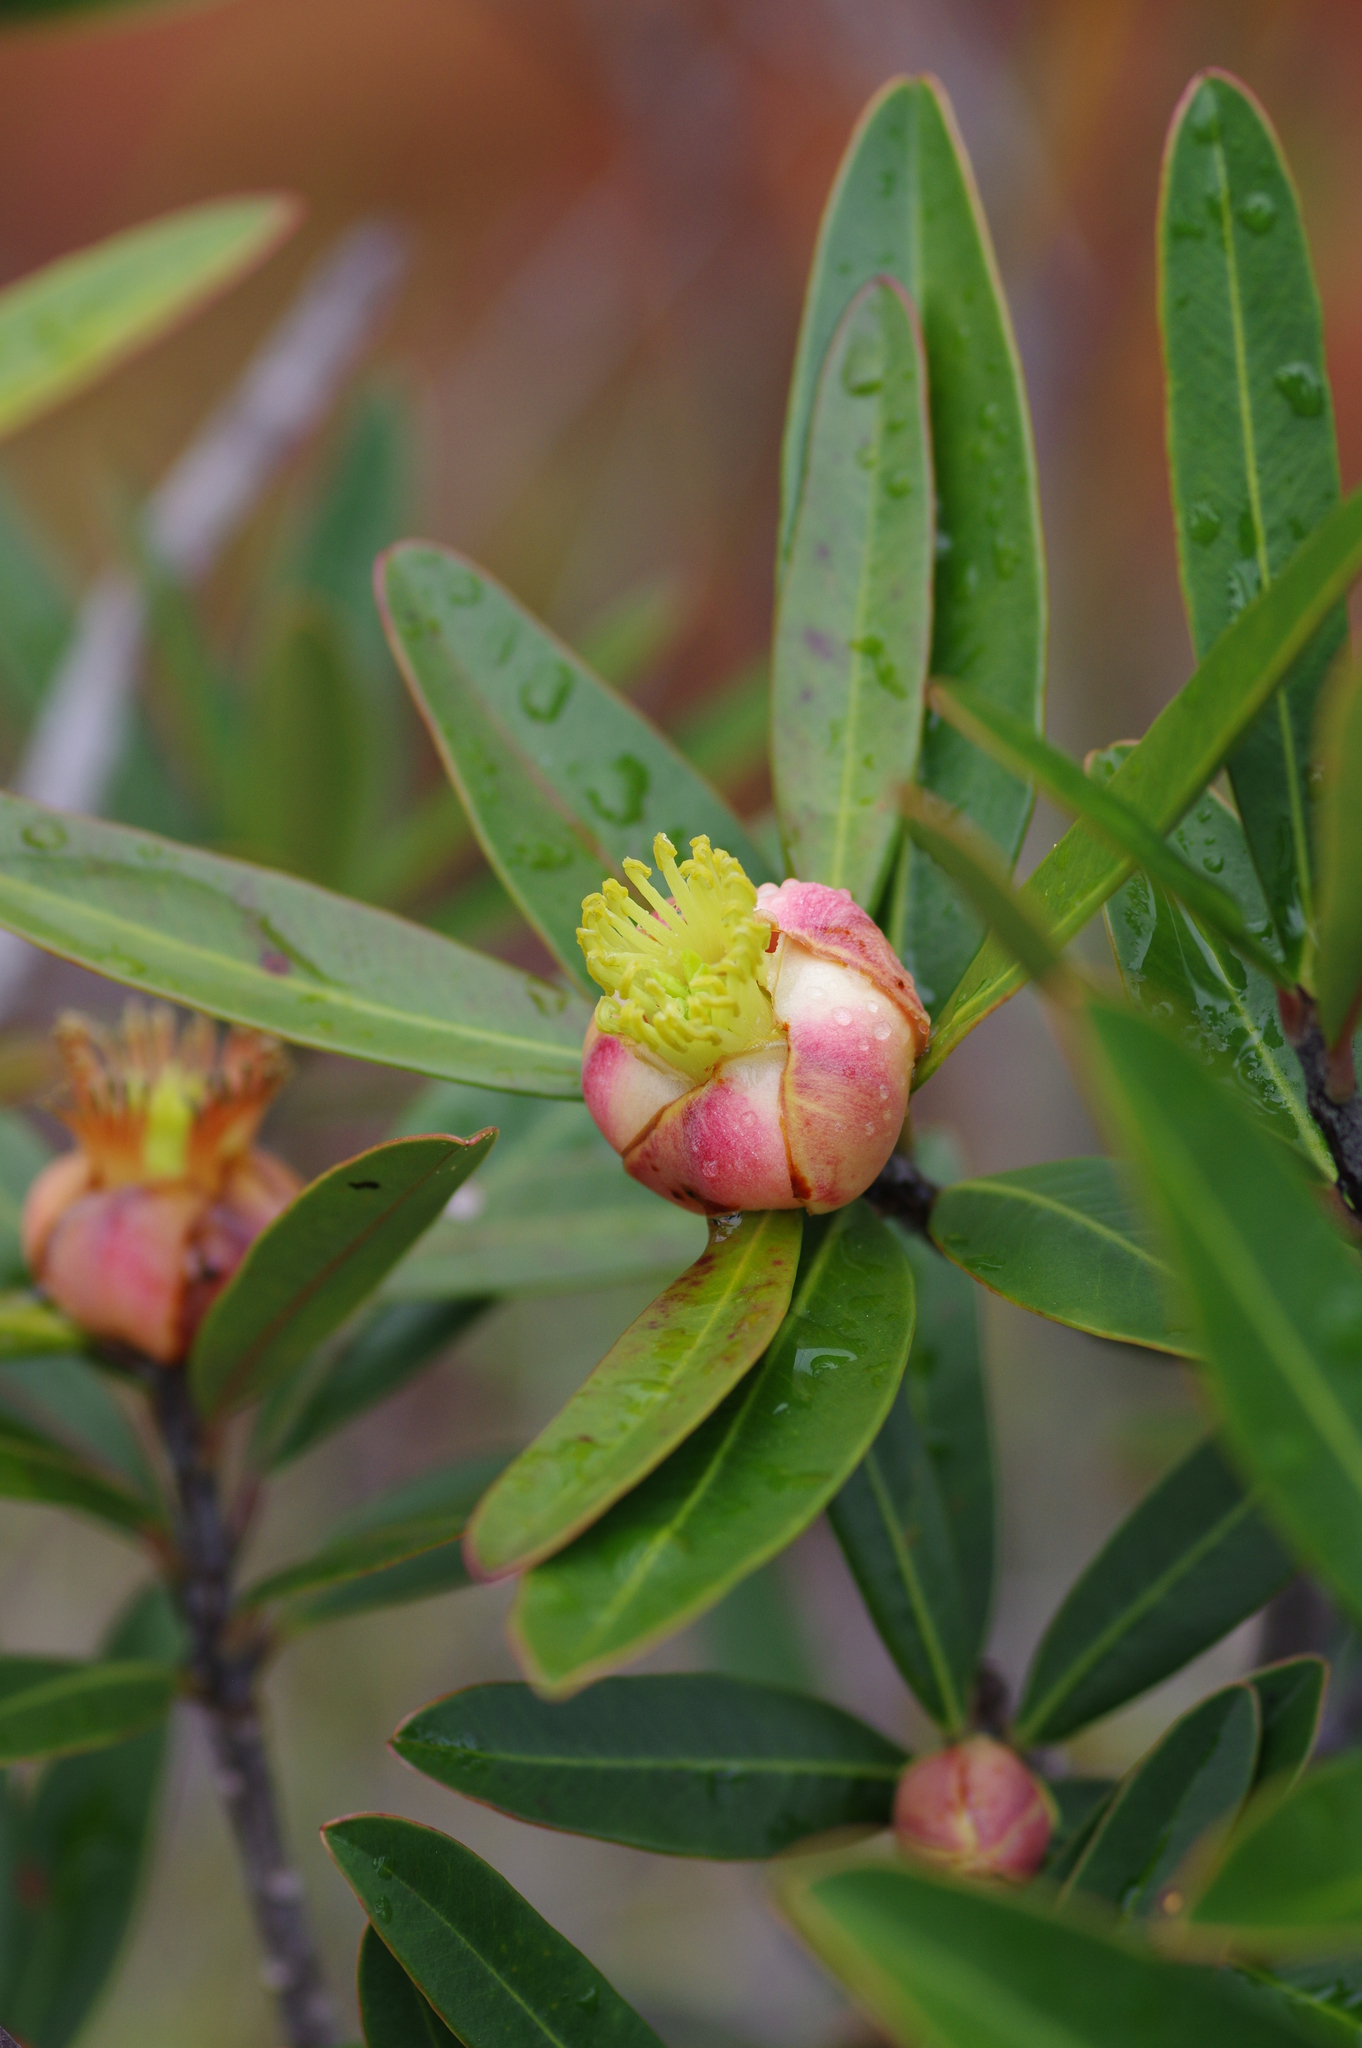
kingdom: Plantae
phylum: Tracheophyta
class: Magnoliopsida
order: Malpighiales
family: Clusiaceae
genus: Montrouziera
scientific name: Montrouziera sphaeroidea
